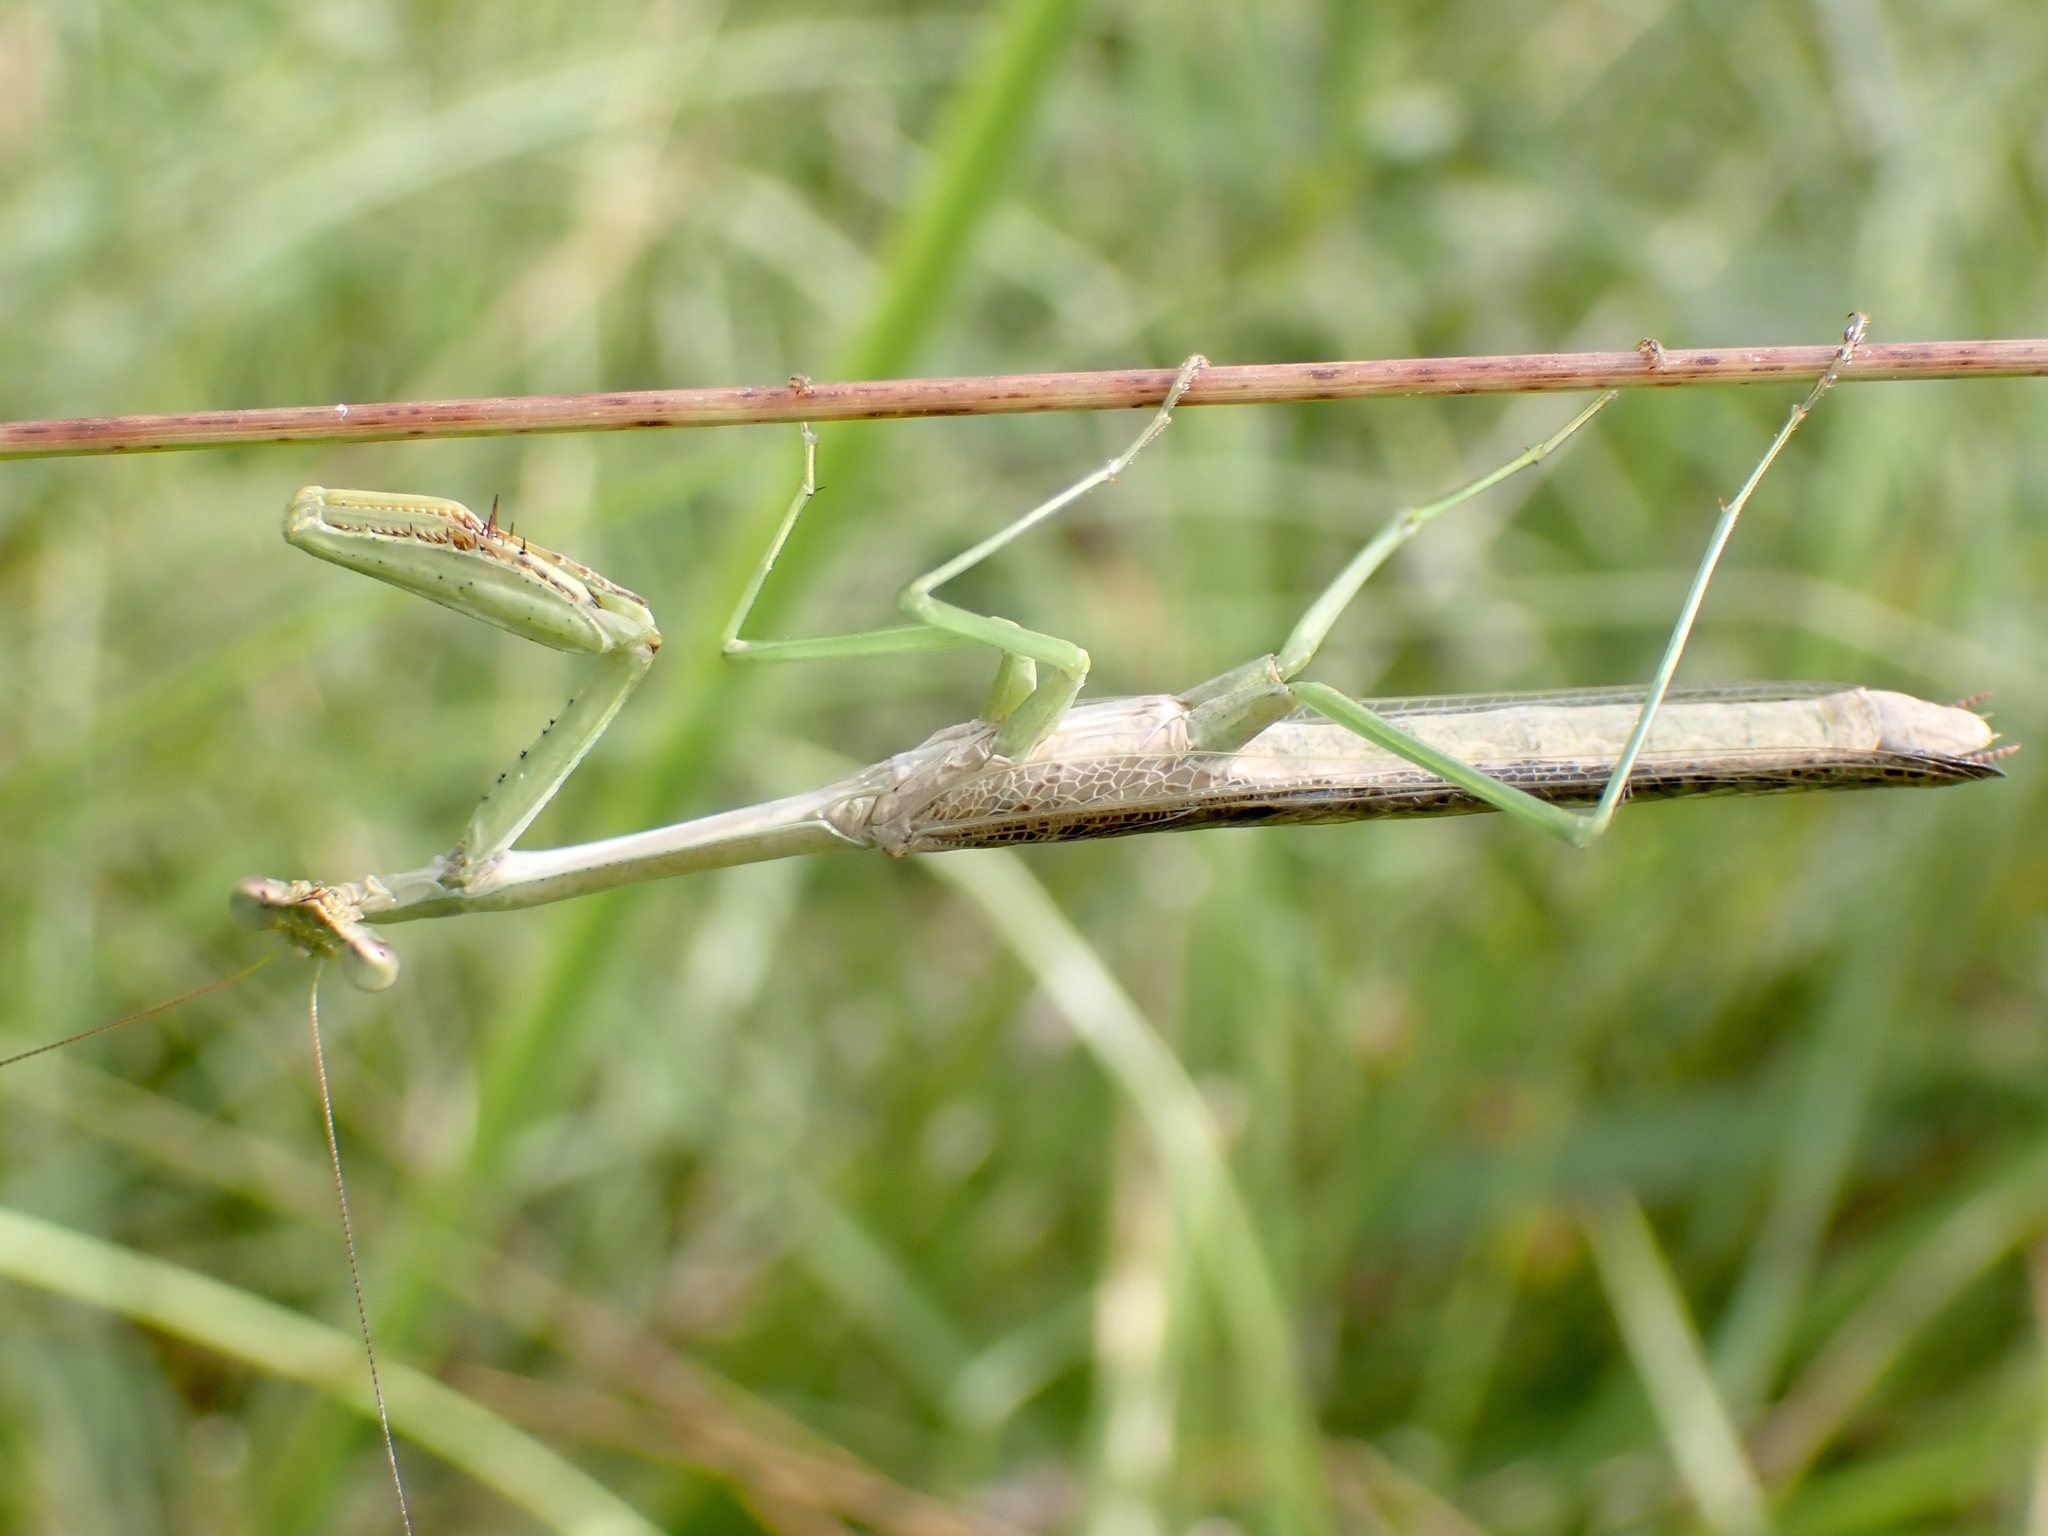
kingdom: Animalia
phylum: Arthropoda
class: Insecta
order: Mantodea
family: Mantidae
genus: Stagmomantis
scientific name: Stagmomantis carolina
